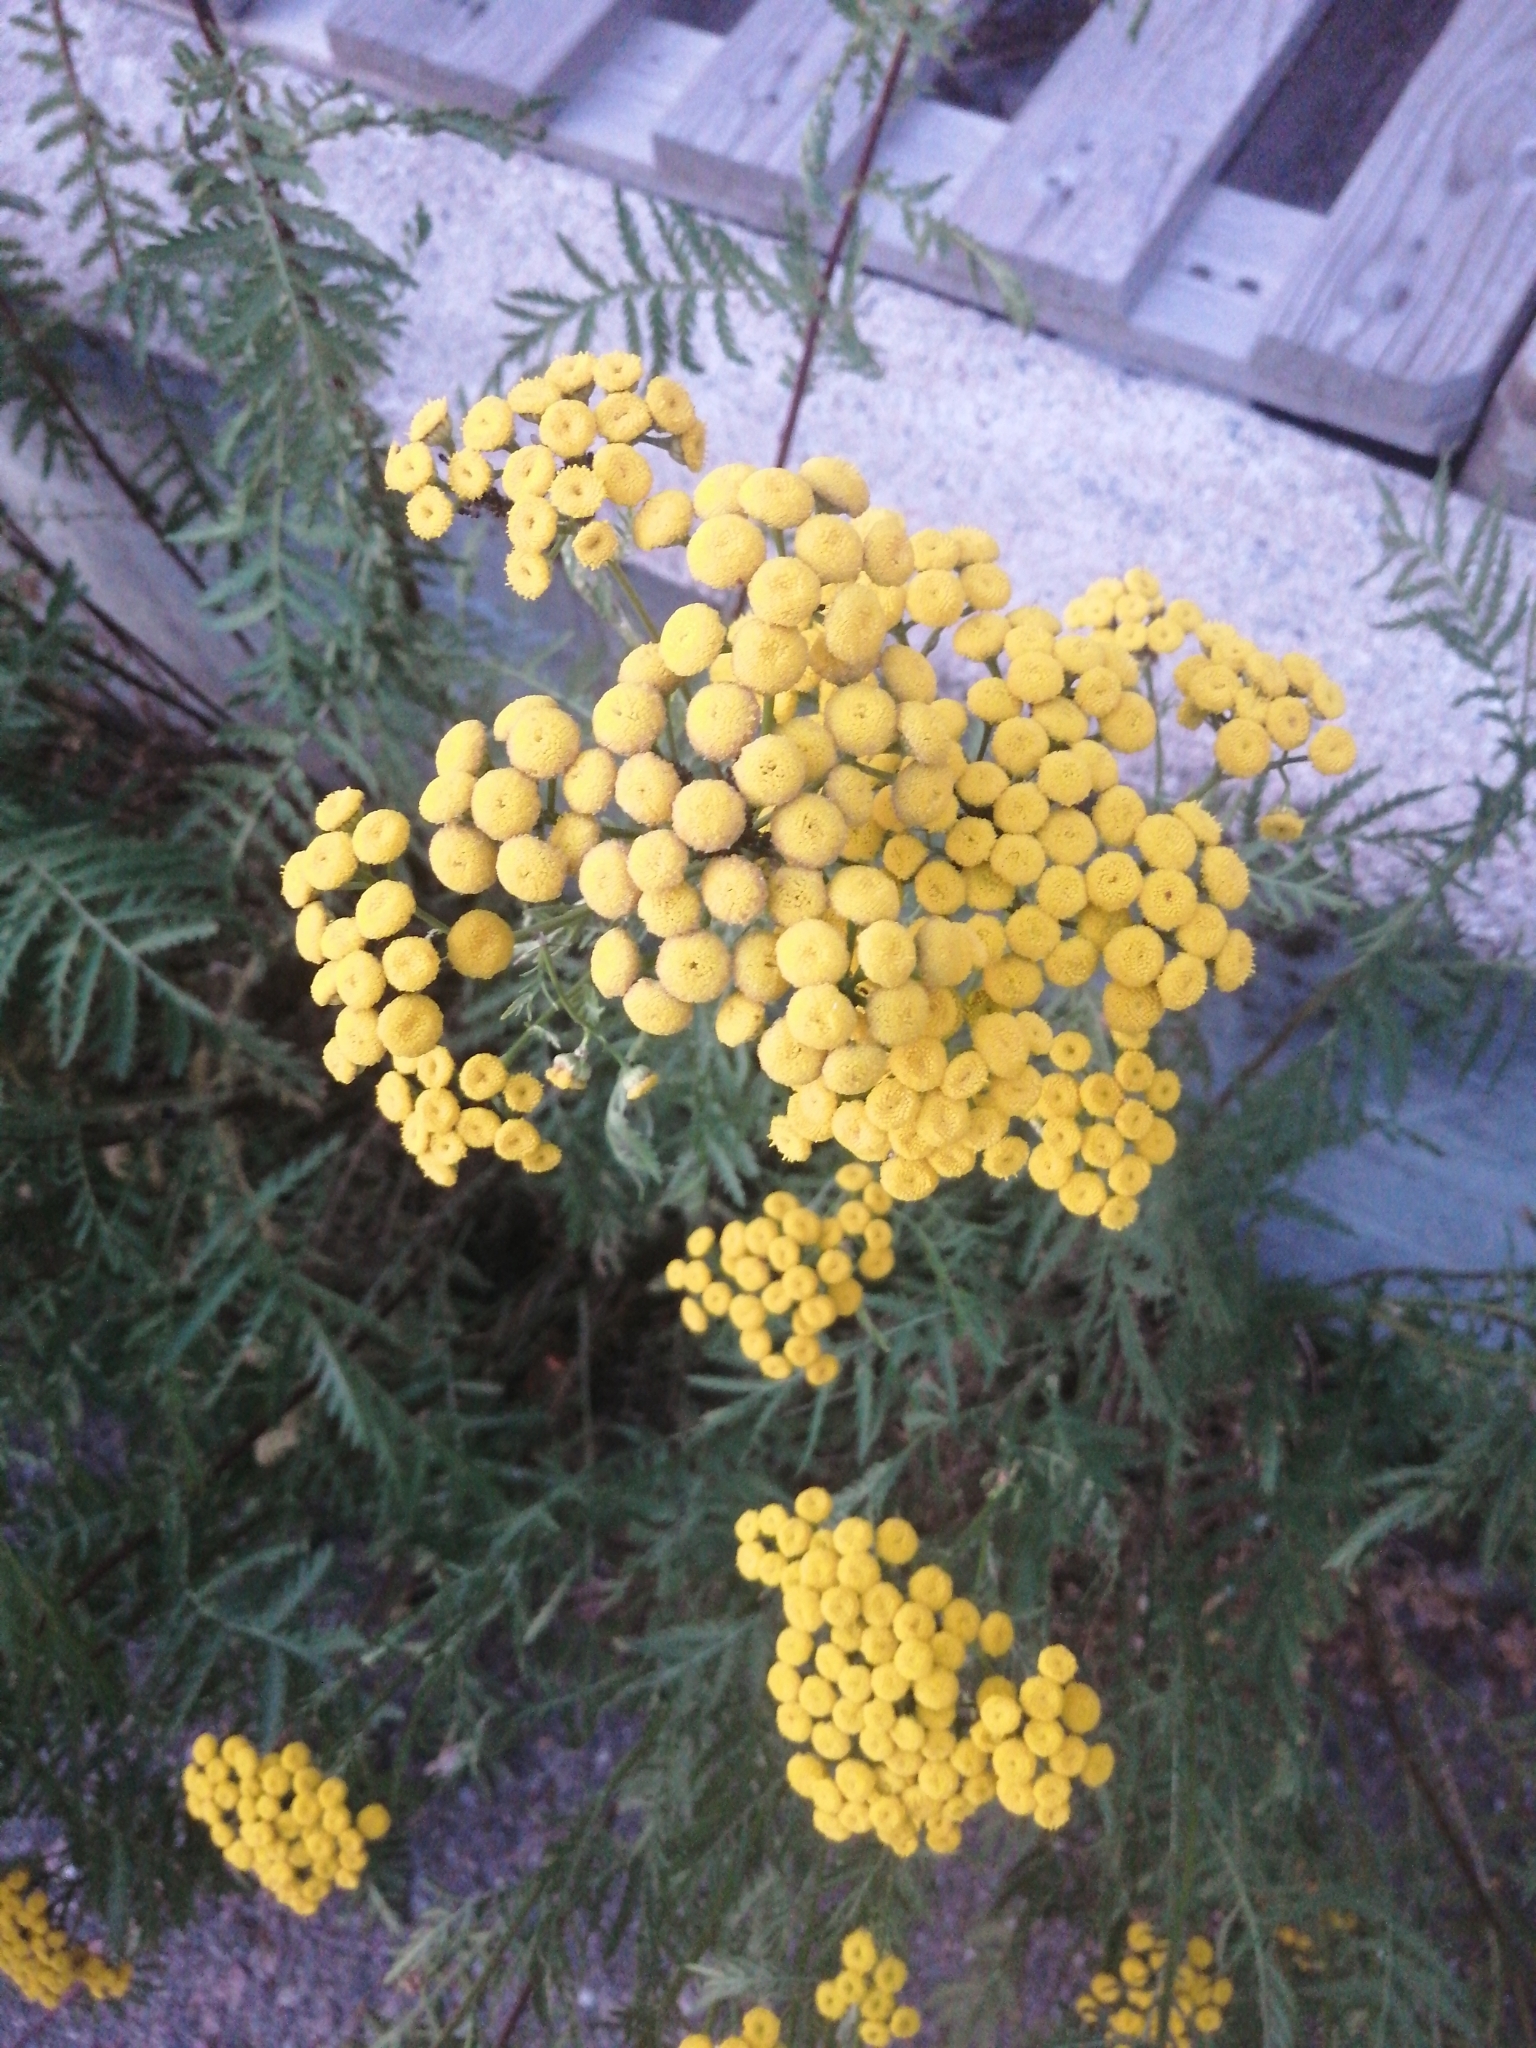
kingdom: Plantae
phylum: Tracheophyta
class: Magnoliopsida
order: Asterales
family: Asteraceae
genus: Tanacetum
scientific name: Tanacetum vulgare
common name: Common tansy
